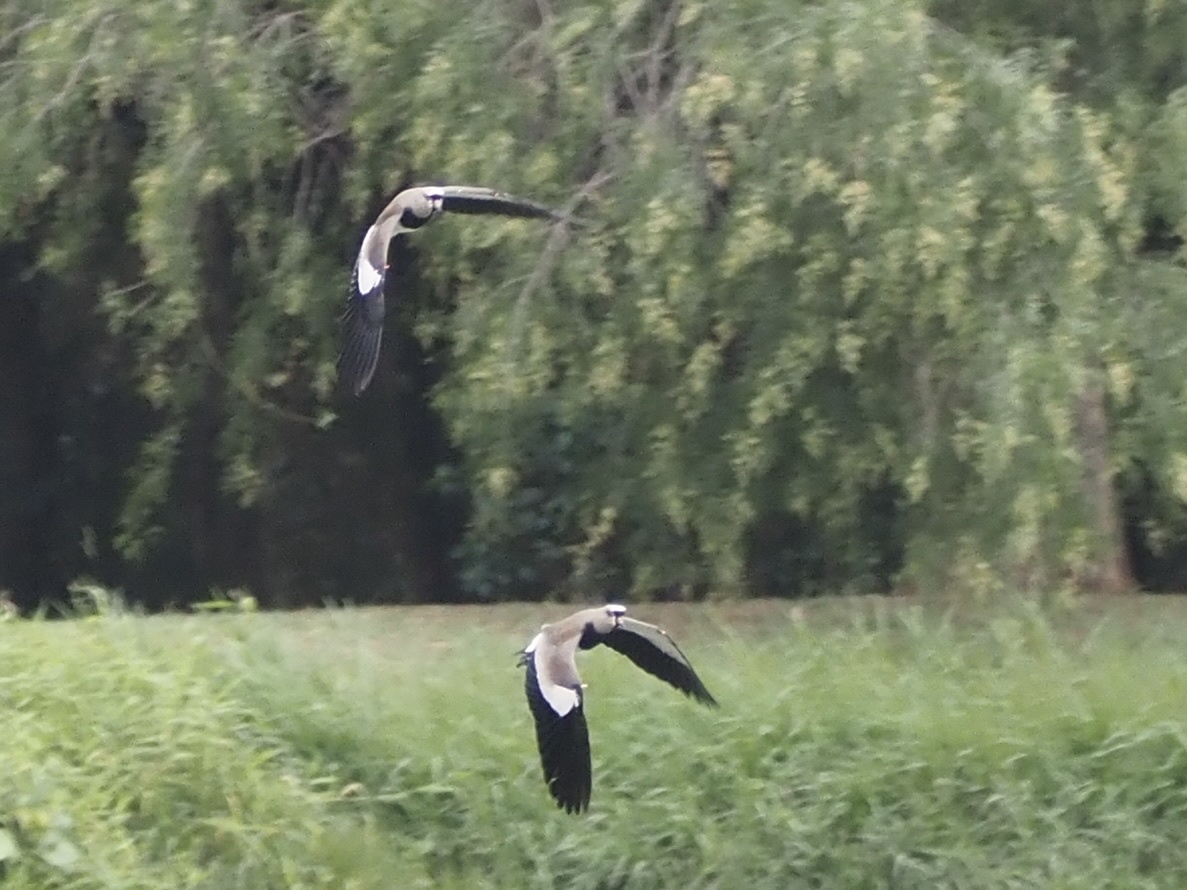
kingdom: Animalia
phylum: Chordata
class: Aves
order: Charadriiformes
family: Charadriidae
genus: Vanellus
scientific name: Vanellus chilensis
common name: Southern lapwing
